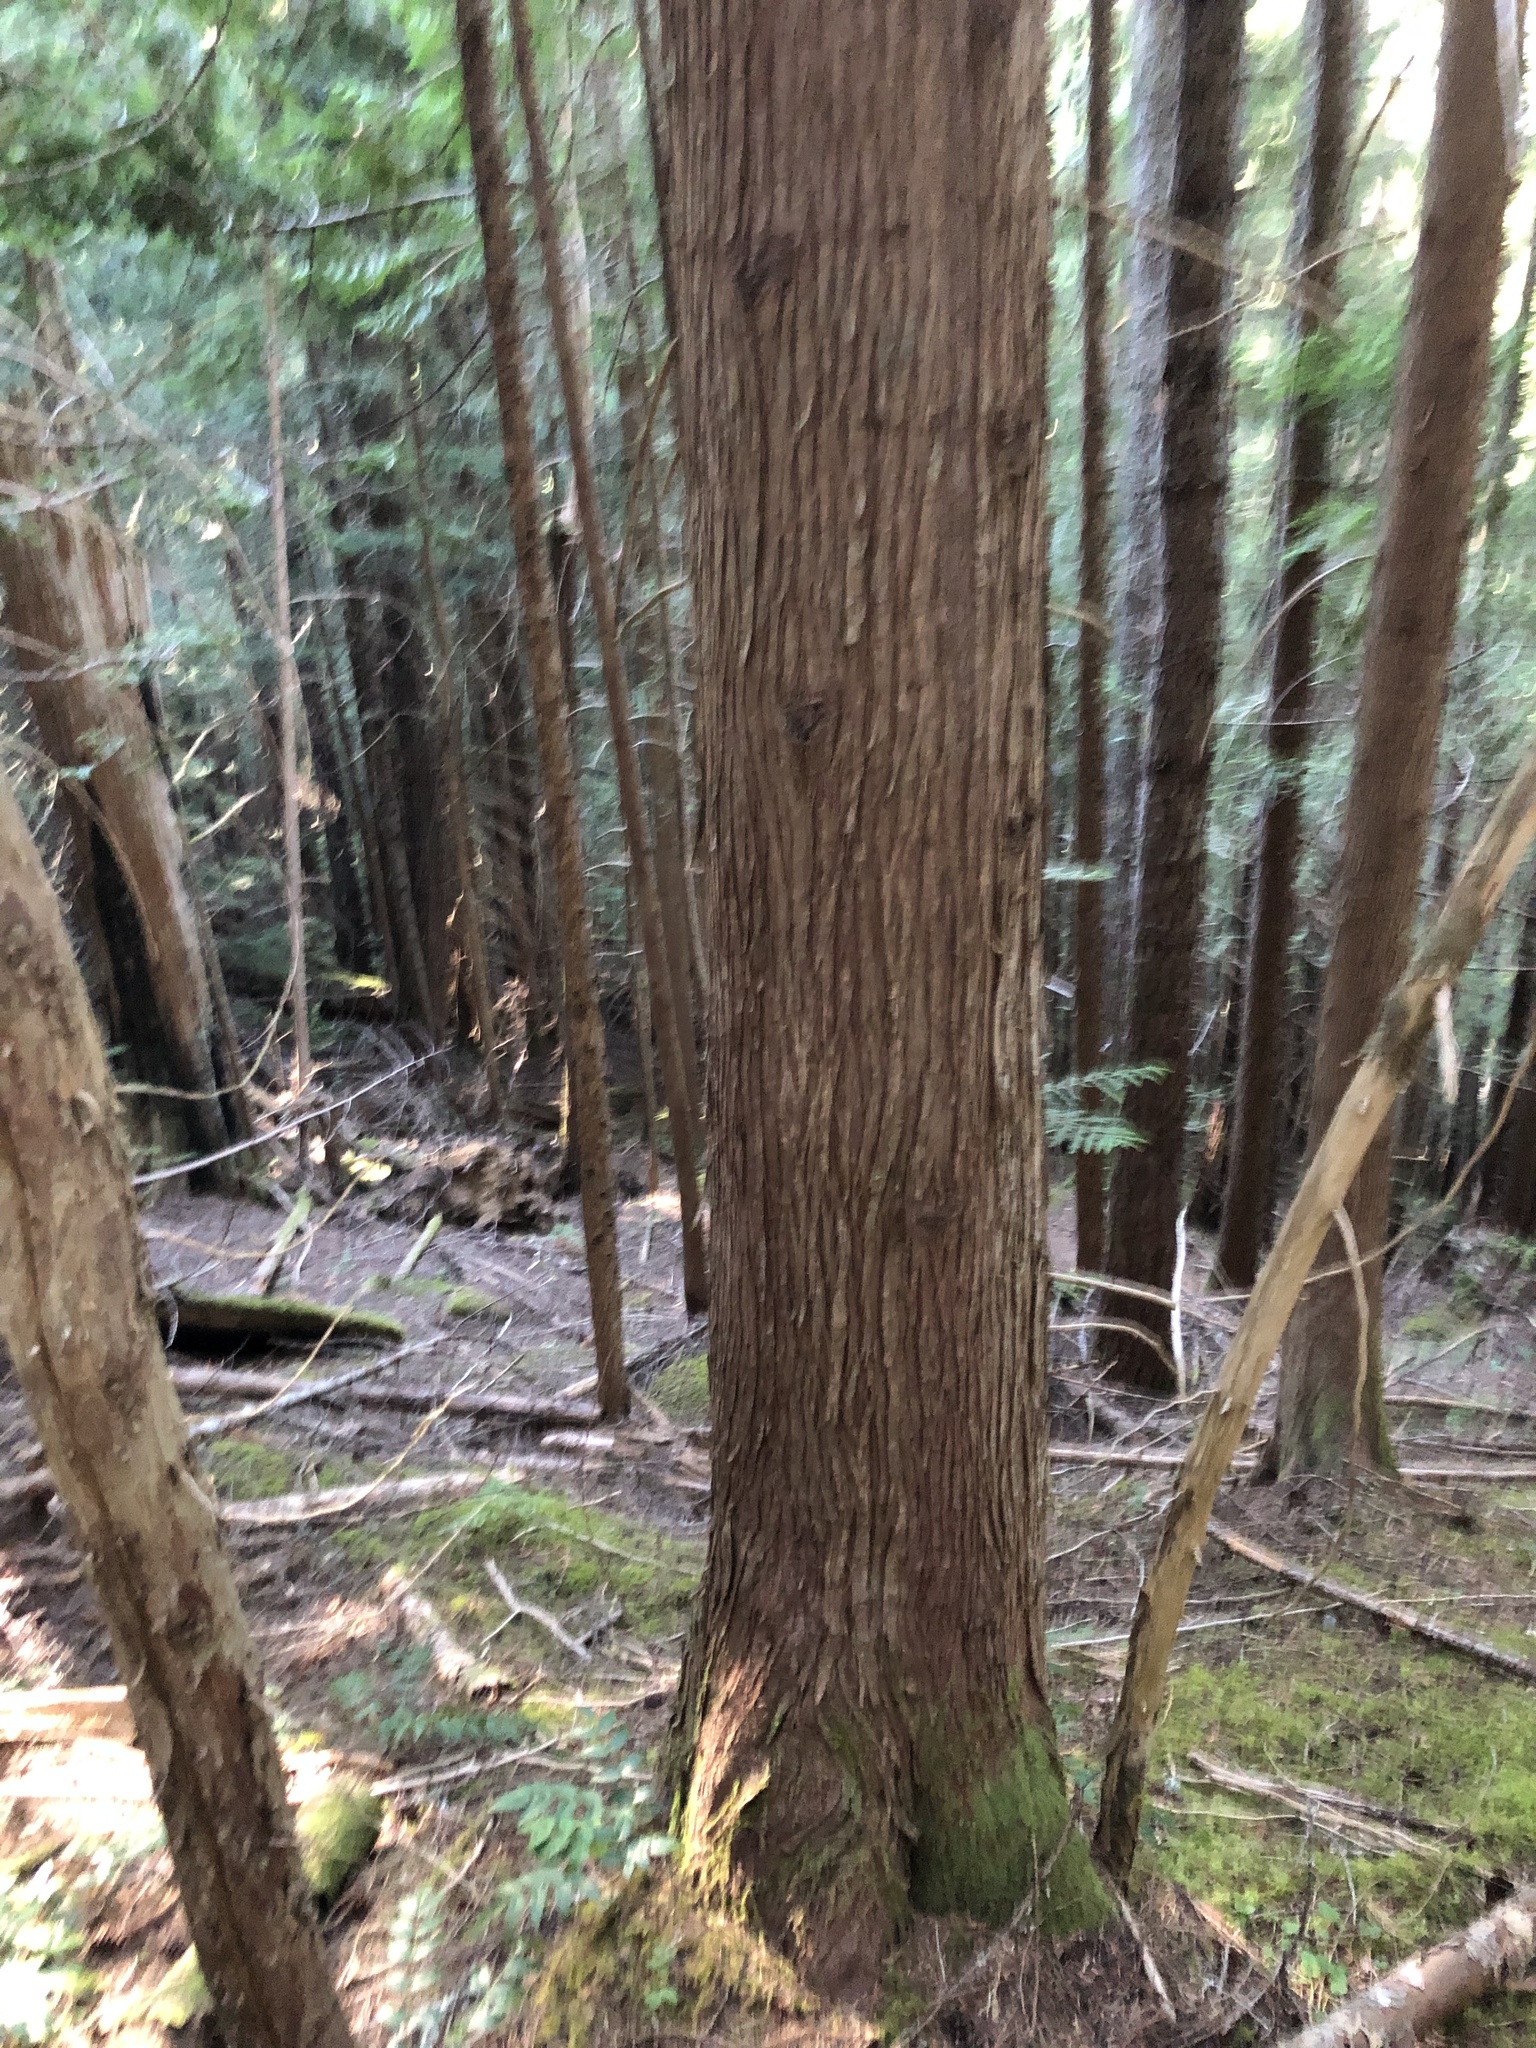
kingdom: Plantae
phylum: Tracheophyta
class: Pinopsida
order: Pinales
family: Cupressaceae
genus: Thuja
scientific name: Thuja plicata
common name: Western red-cedar
